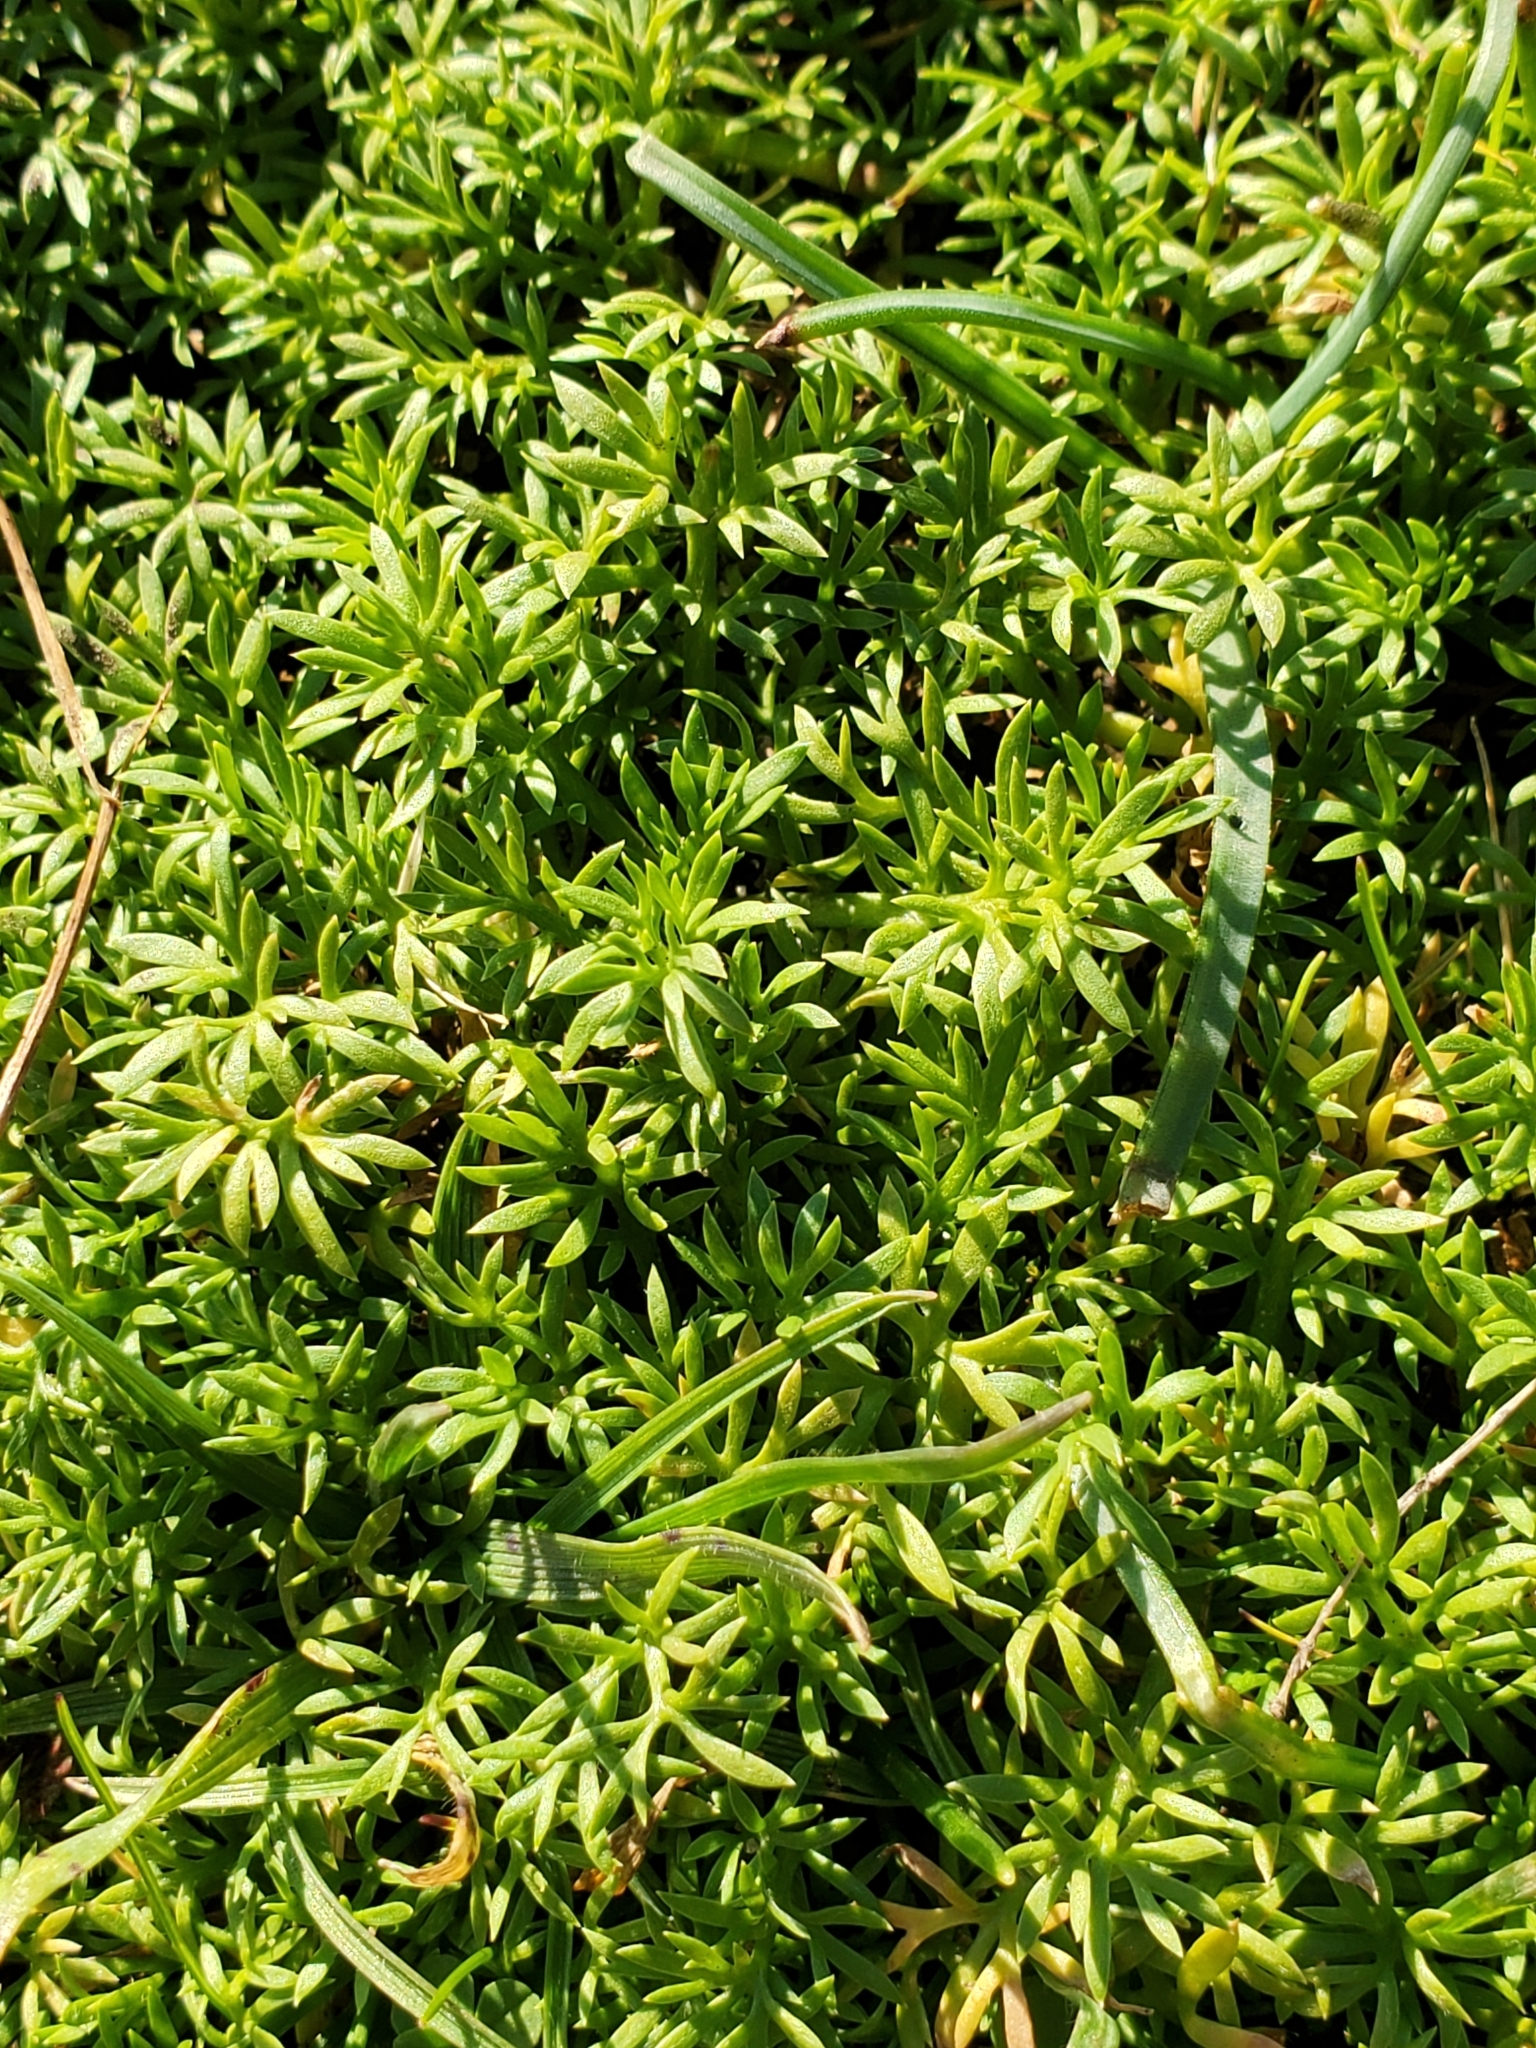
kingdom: Plantae
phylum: Tracheophyta
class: Magnoliopsida
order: Asterales
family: Asteraceae
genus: Soliva
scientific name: Soliva sessilis
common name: Field burrweed
